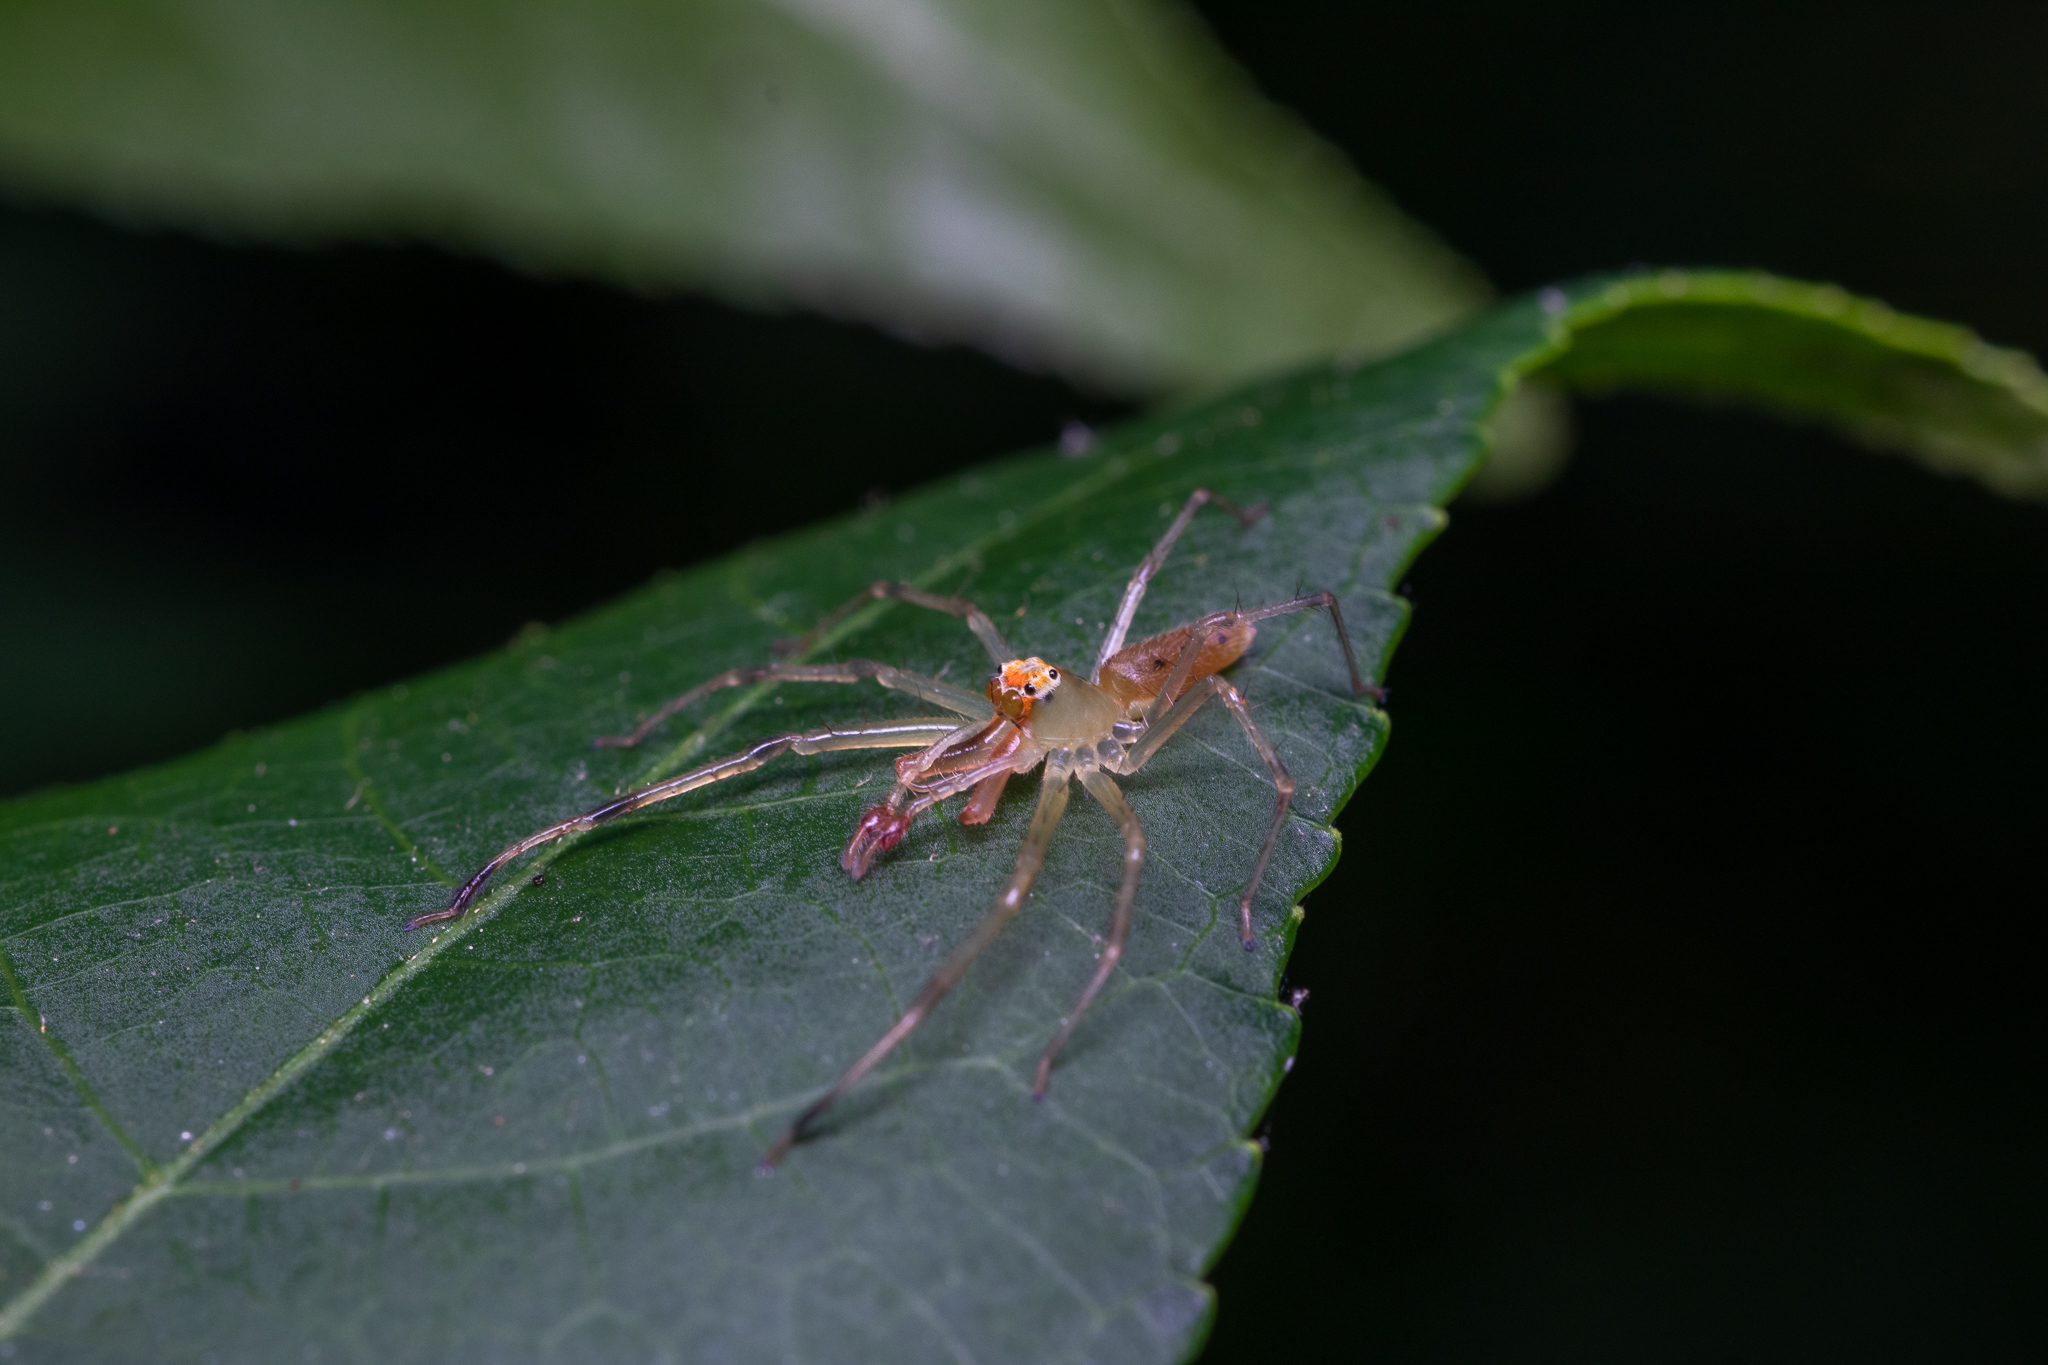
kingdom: Animalia
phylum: Arthropoda
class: Arachnida
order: Araneae
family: Salticidae
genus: Lyssomanes
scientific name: Lyssomanes viridis
